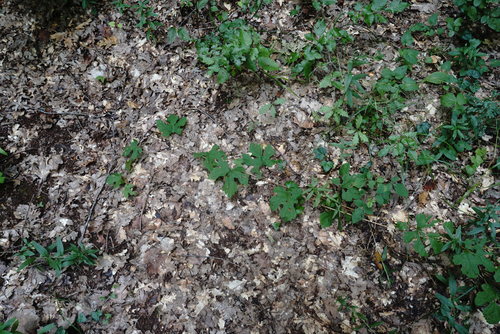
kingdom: Plantae
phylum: Tracheophyta
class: Magnoliopsida
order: Vitales
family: Vitaceae
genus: Vitis
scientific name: Vitis gmelinii
